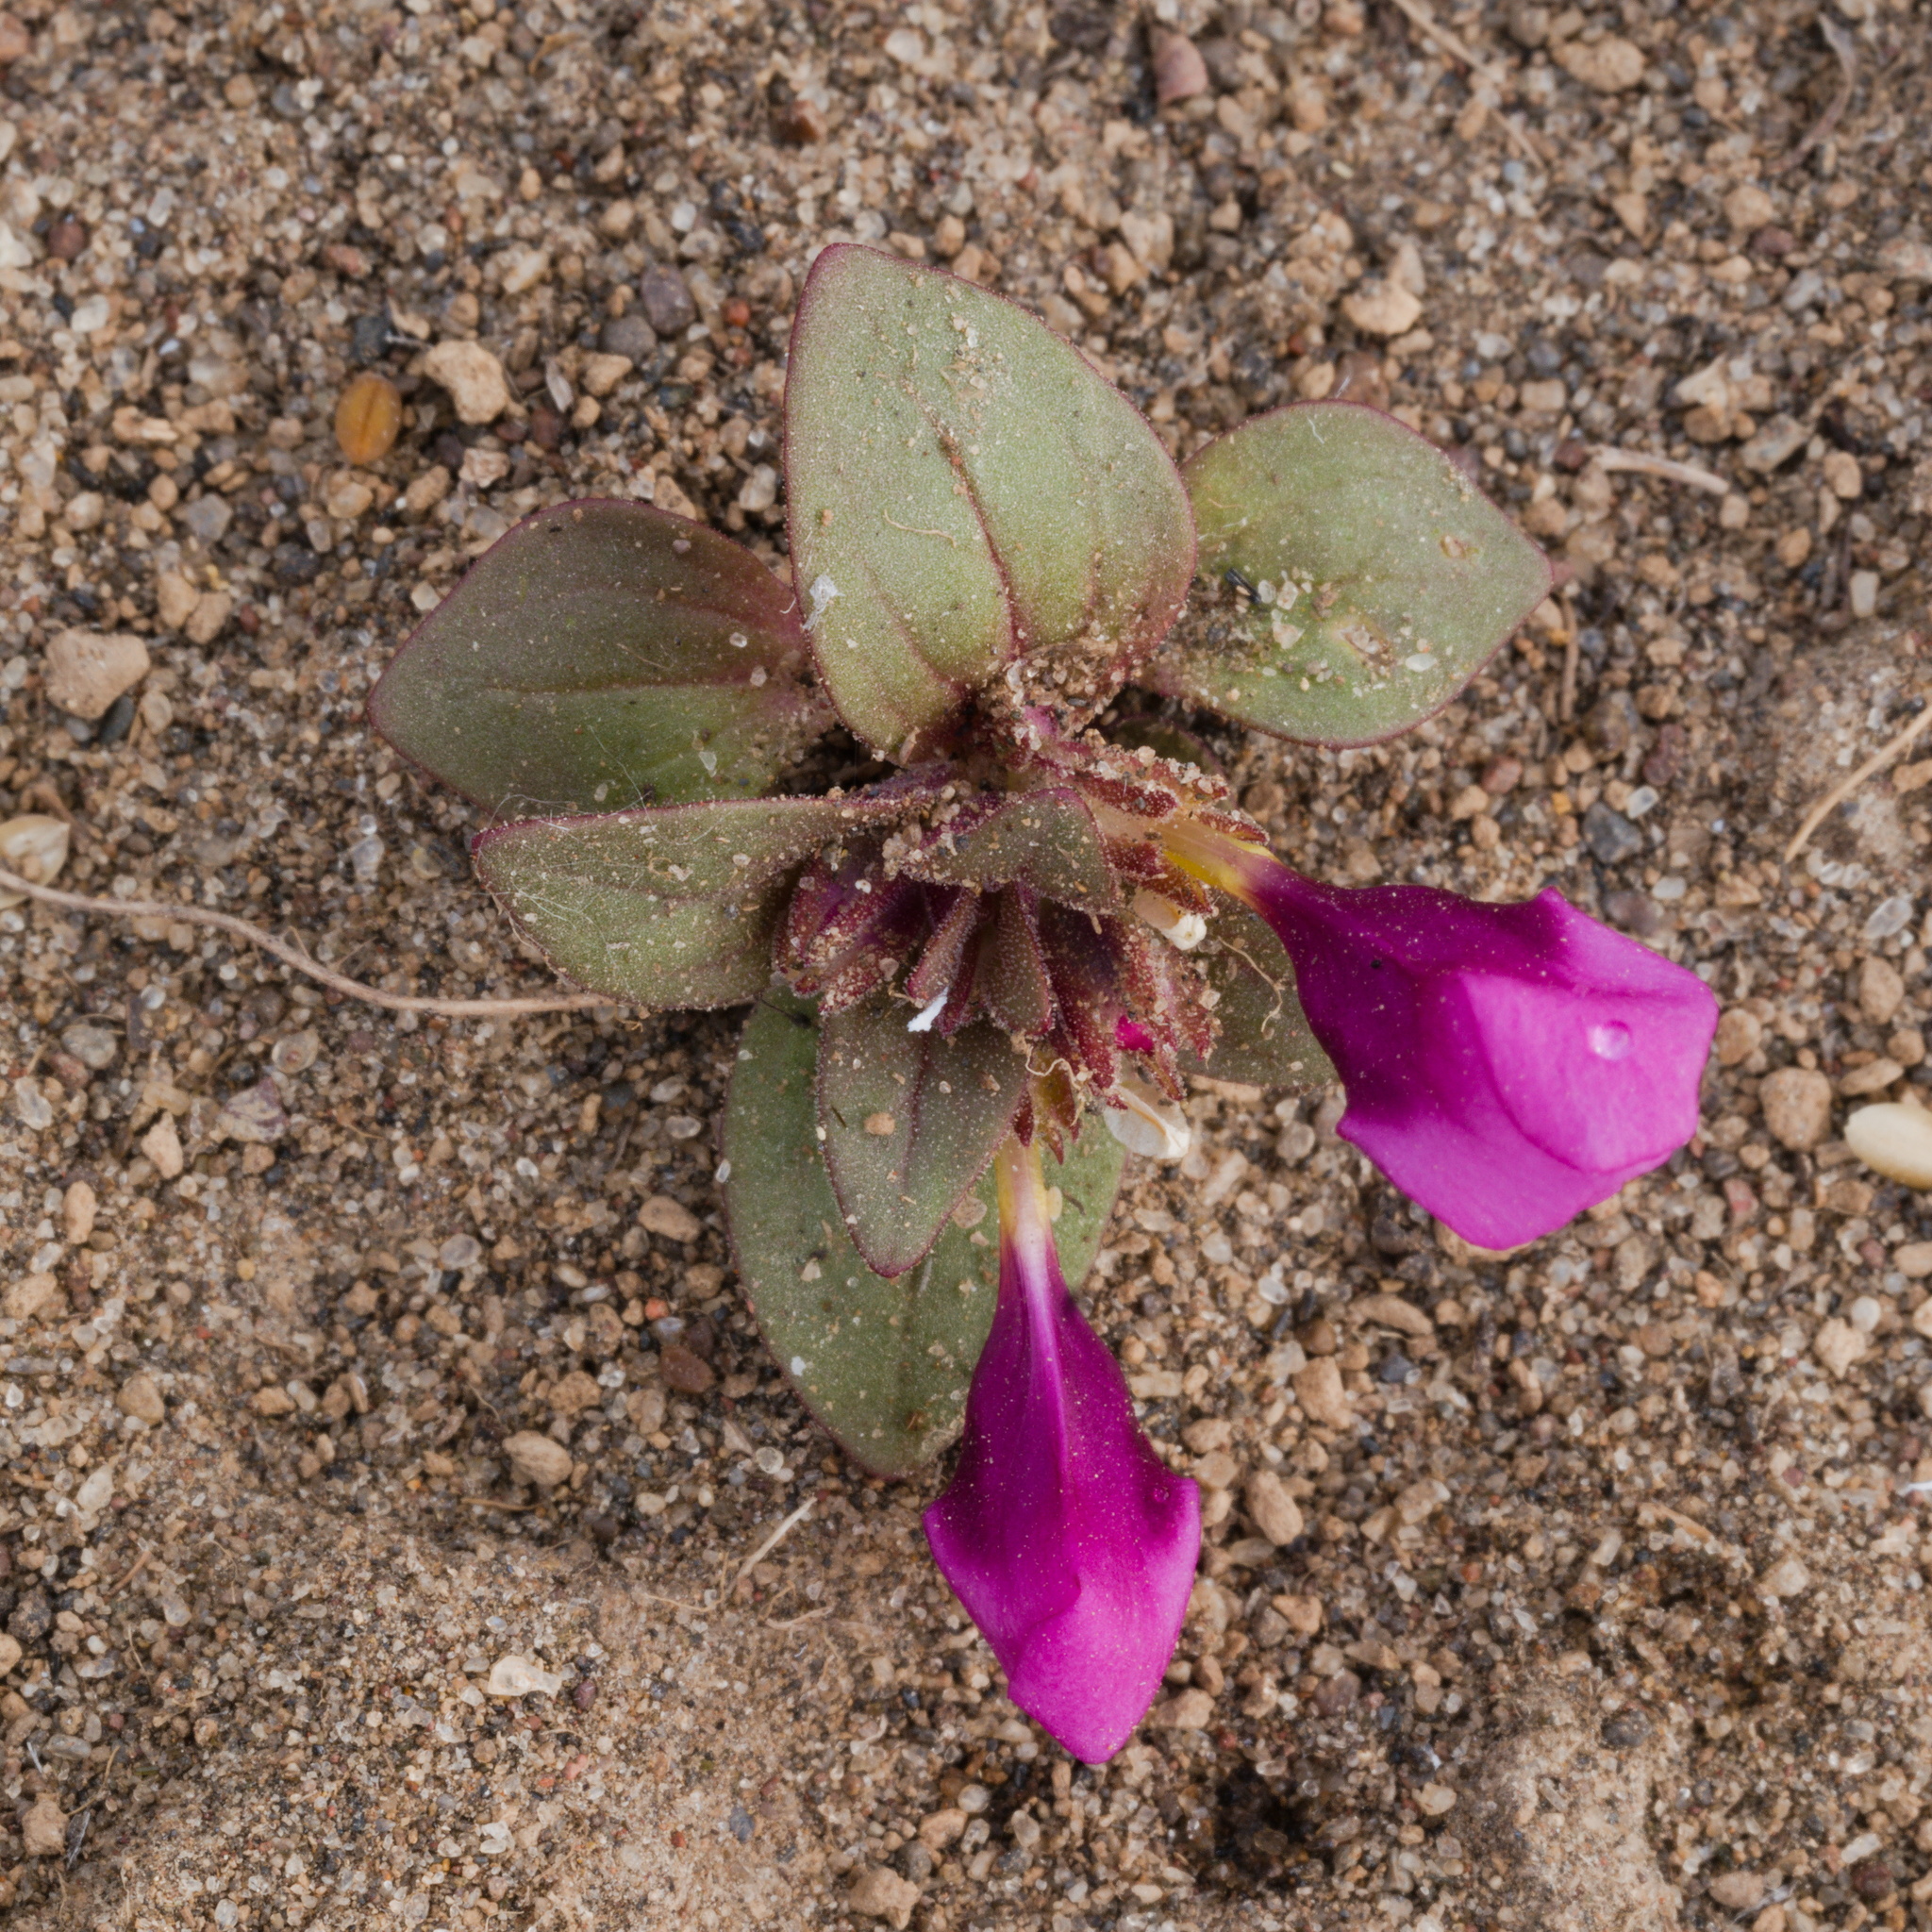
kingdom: Plantae
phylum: Tracheophyta
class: Magnoliopsida
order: Lamiales
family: Phrymaceae
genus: Diplacus
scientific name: Diplacus nanus
